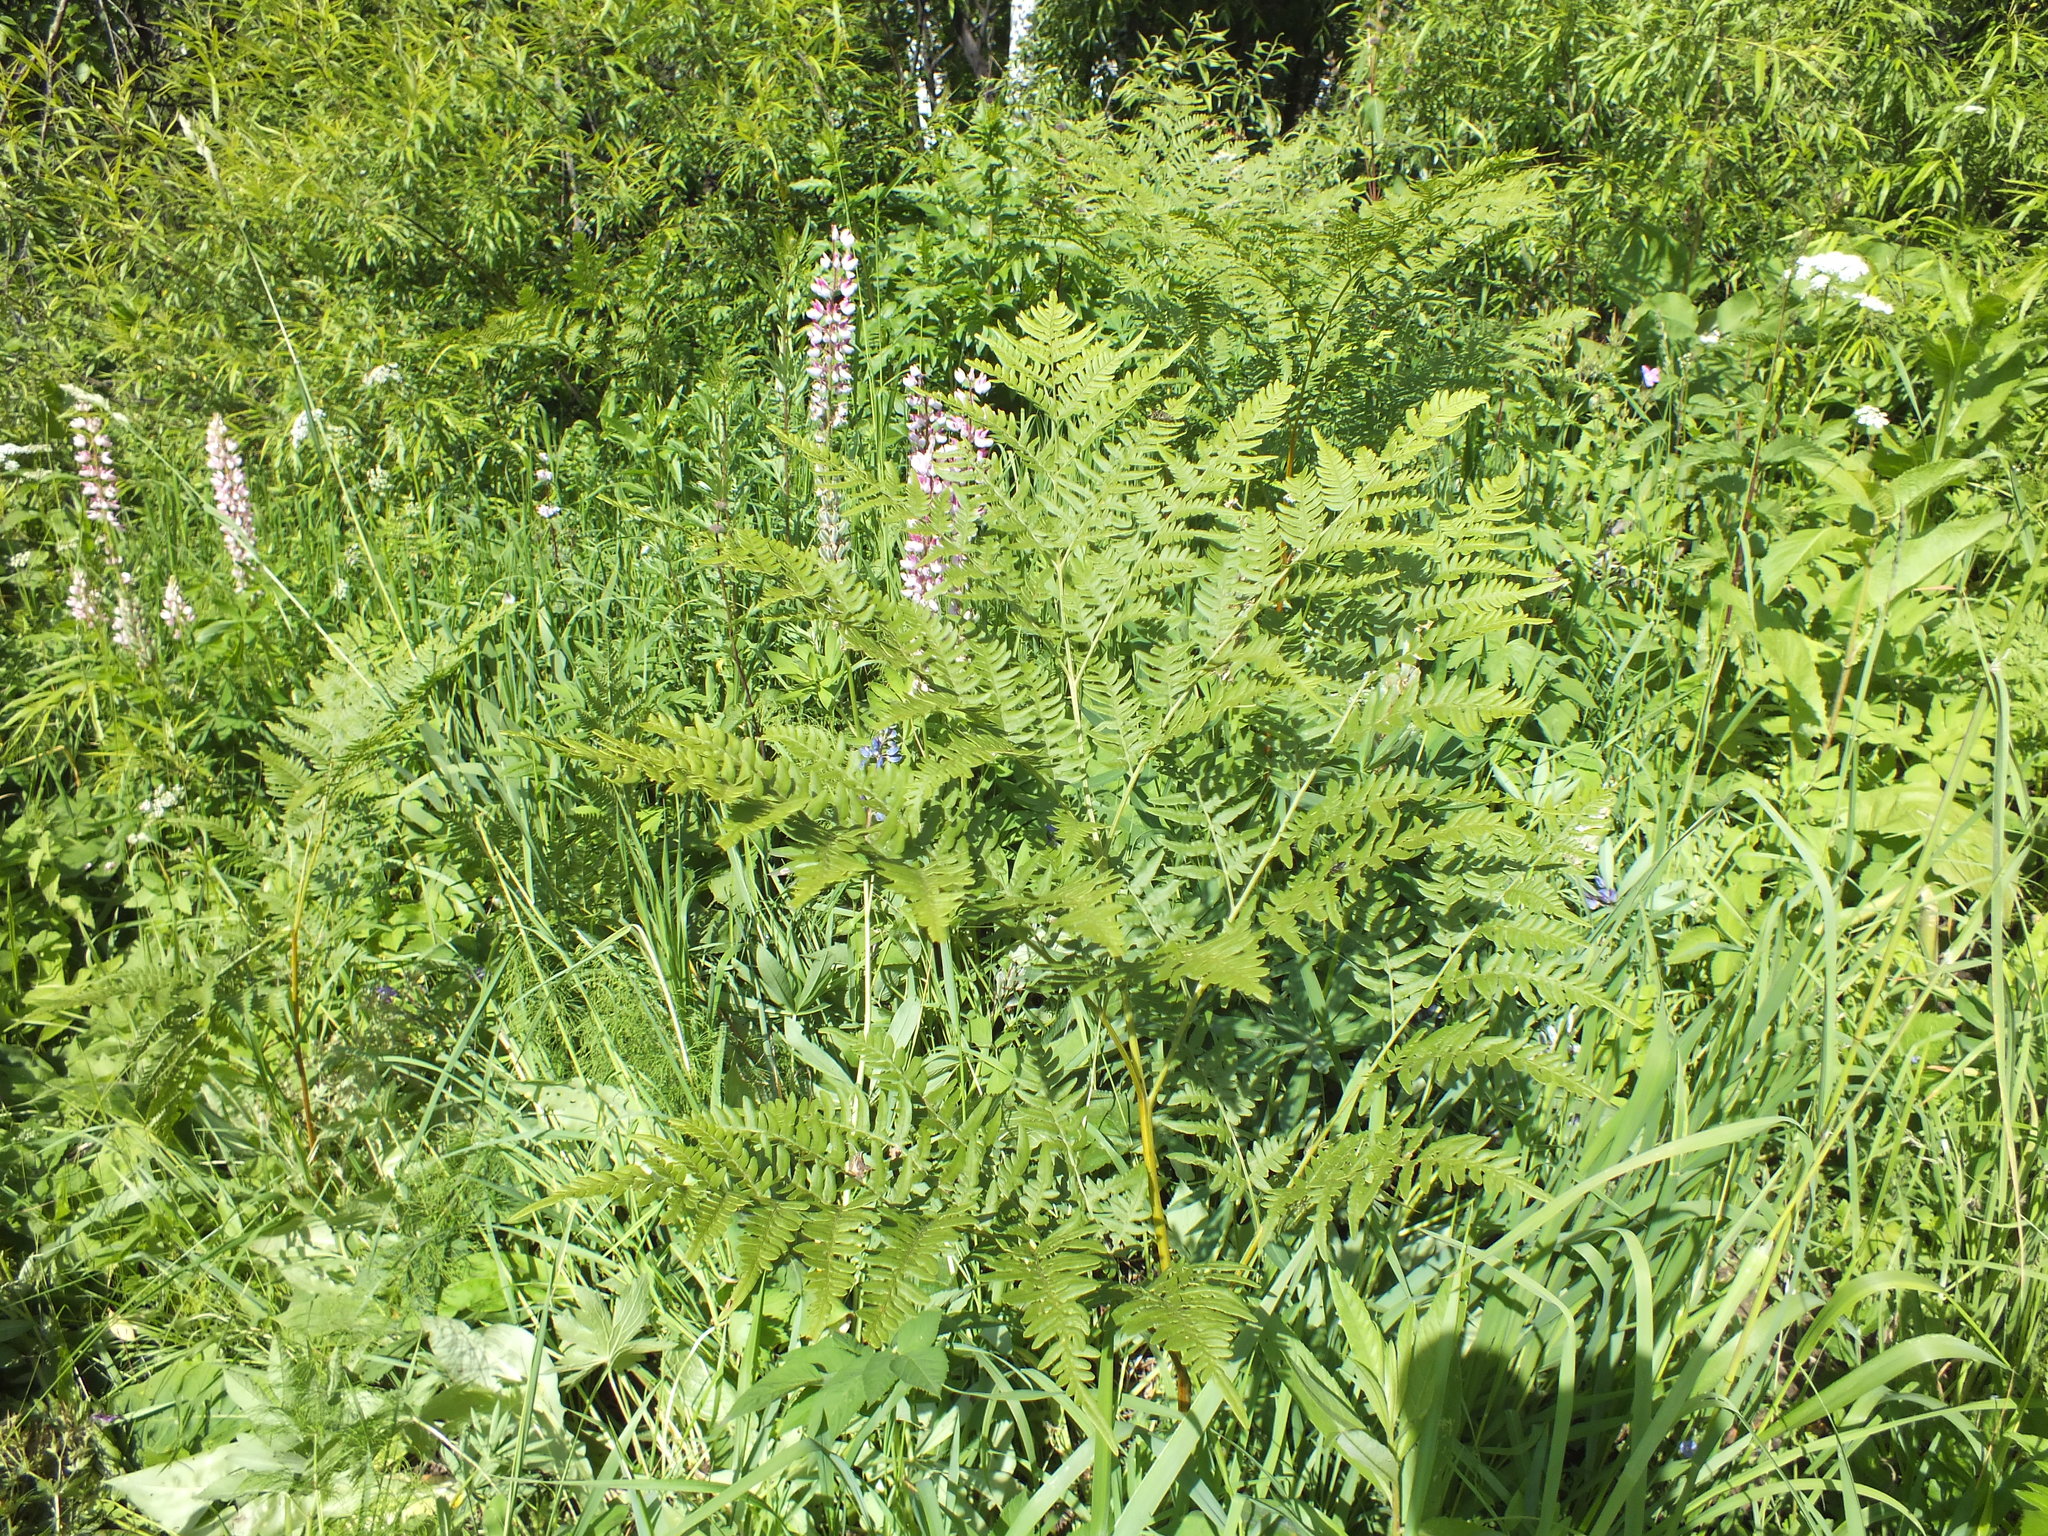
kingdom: Plantae
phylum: Tracheophyta
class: Polypodiopsida
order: Polypodiales
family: Dennstaedtiaceae
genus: Pteridium
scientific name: Pteridium aquilinum
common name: Bracken
